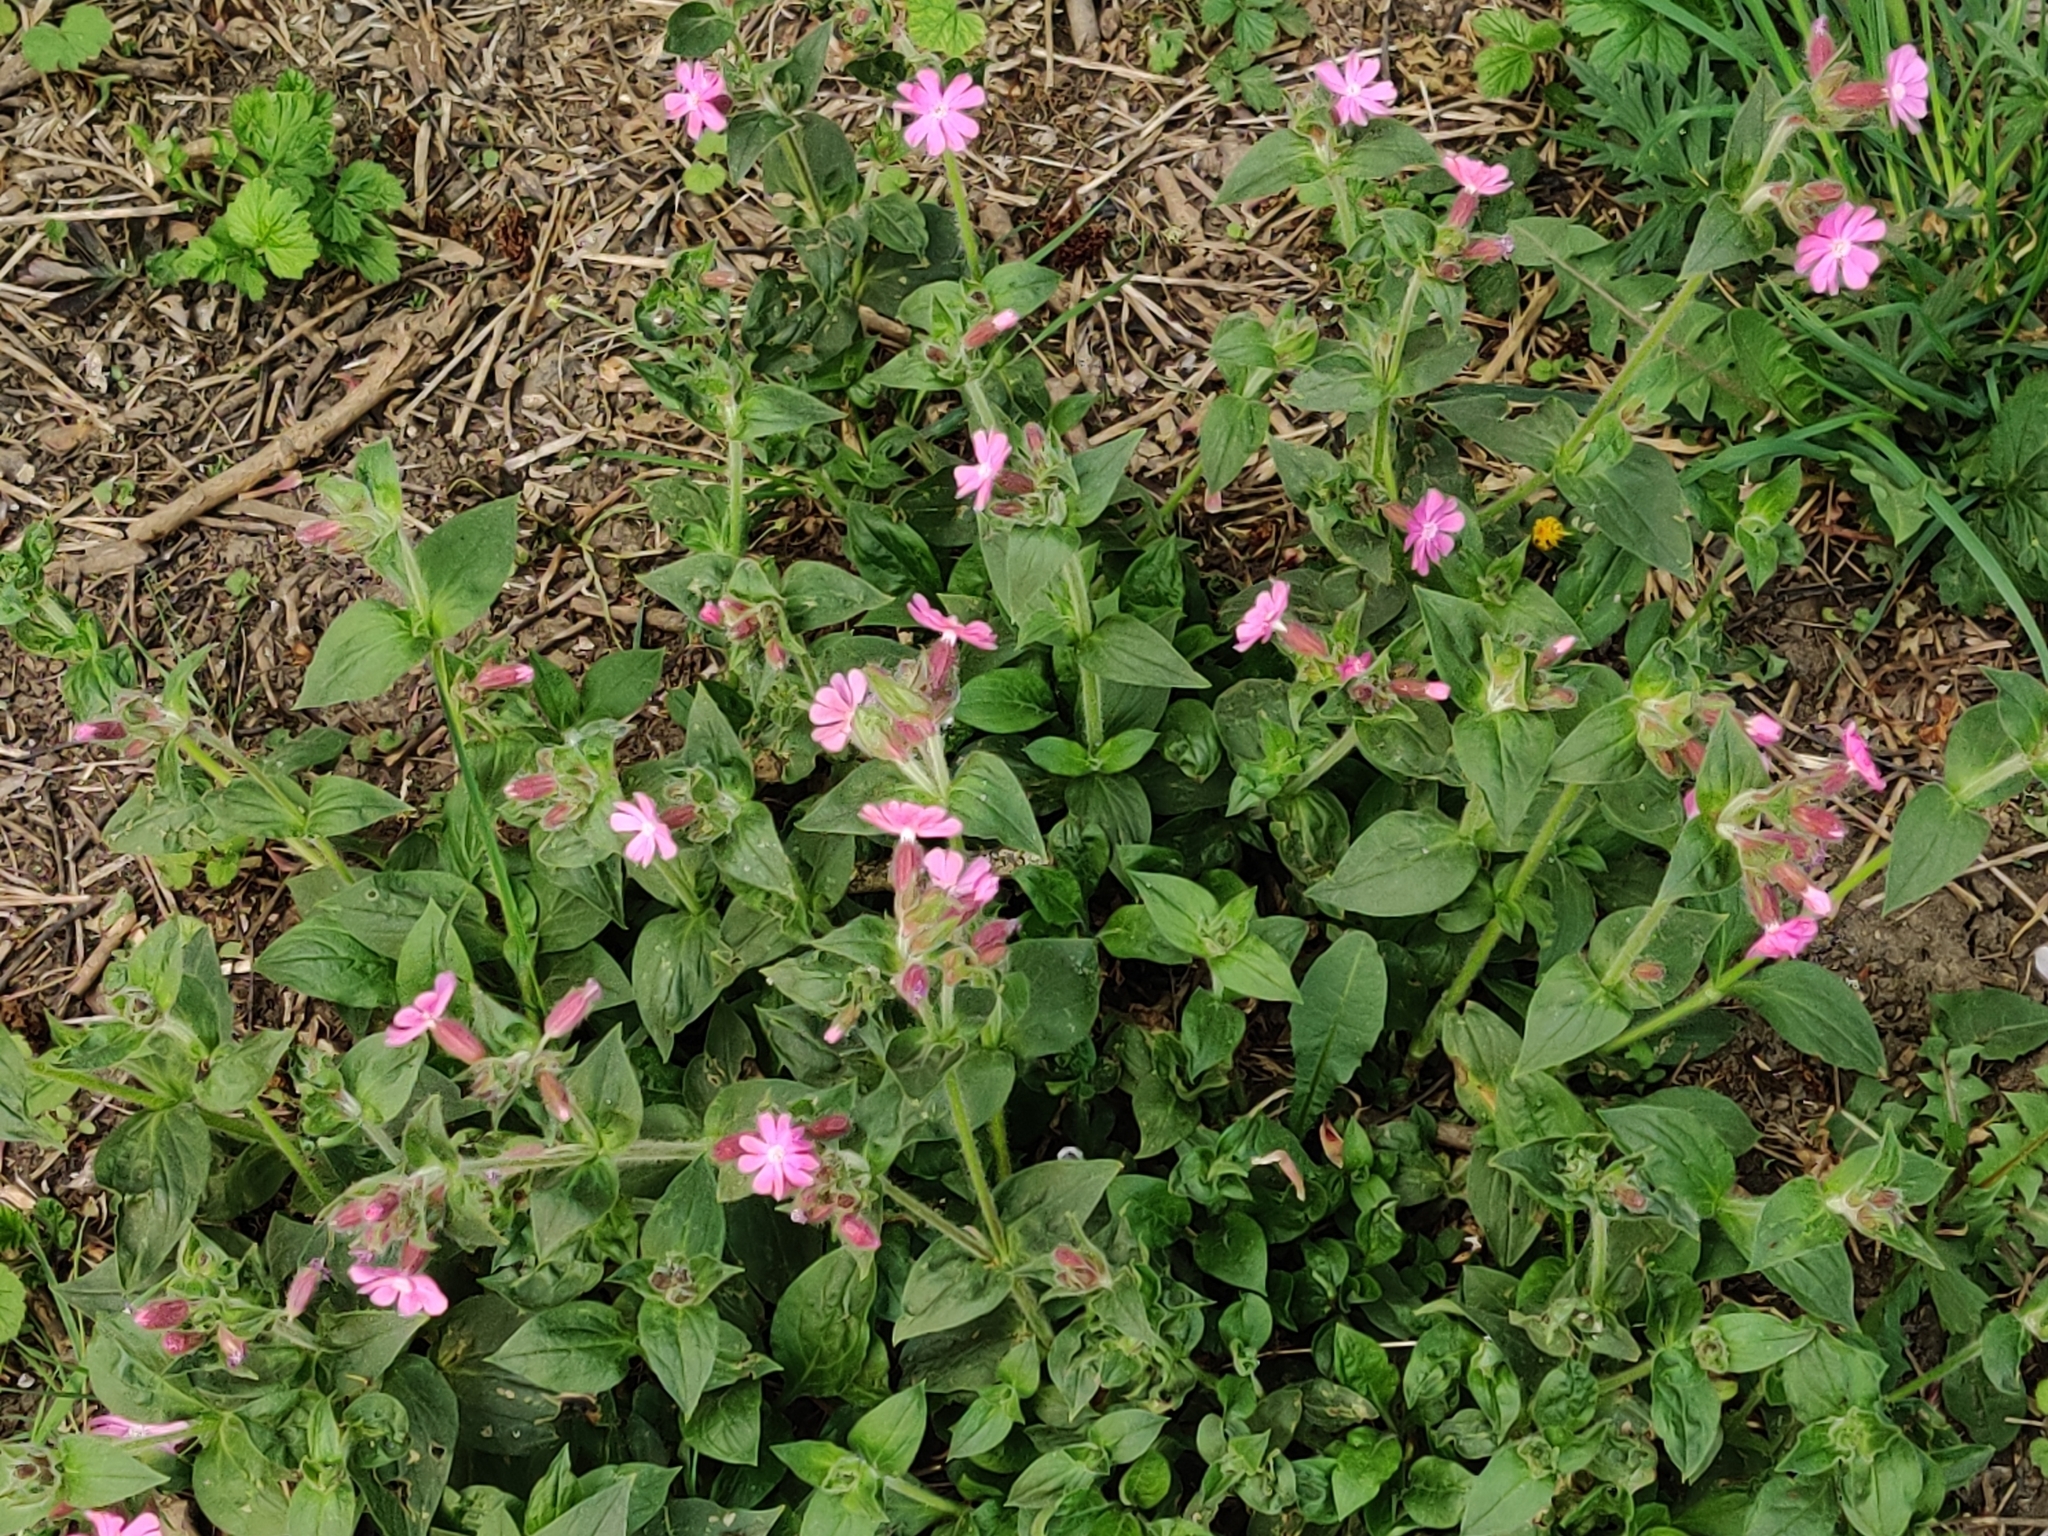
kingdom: Plantae
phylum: Tracheophyta
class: Magnoliopsida
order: Caryophyllales
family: Caryophyllaceae
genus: Silene
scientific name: Silene dioica
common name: Red campion
